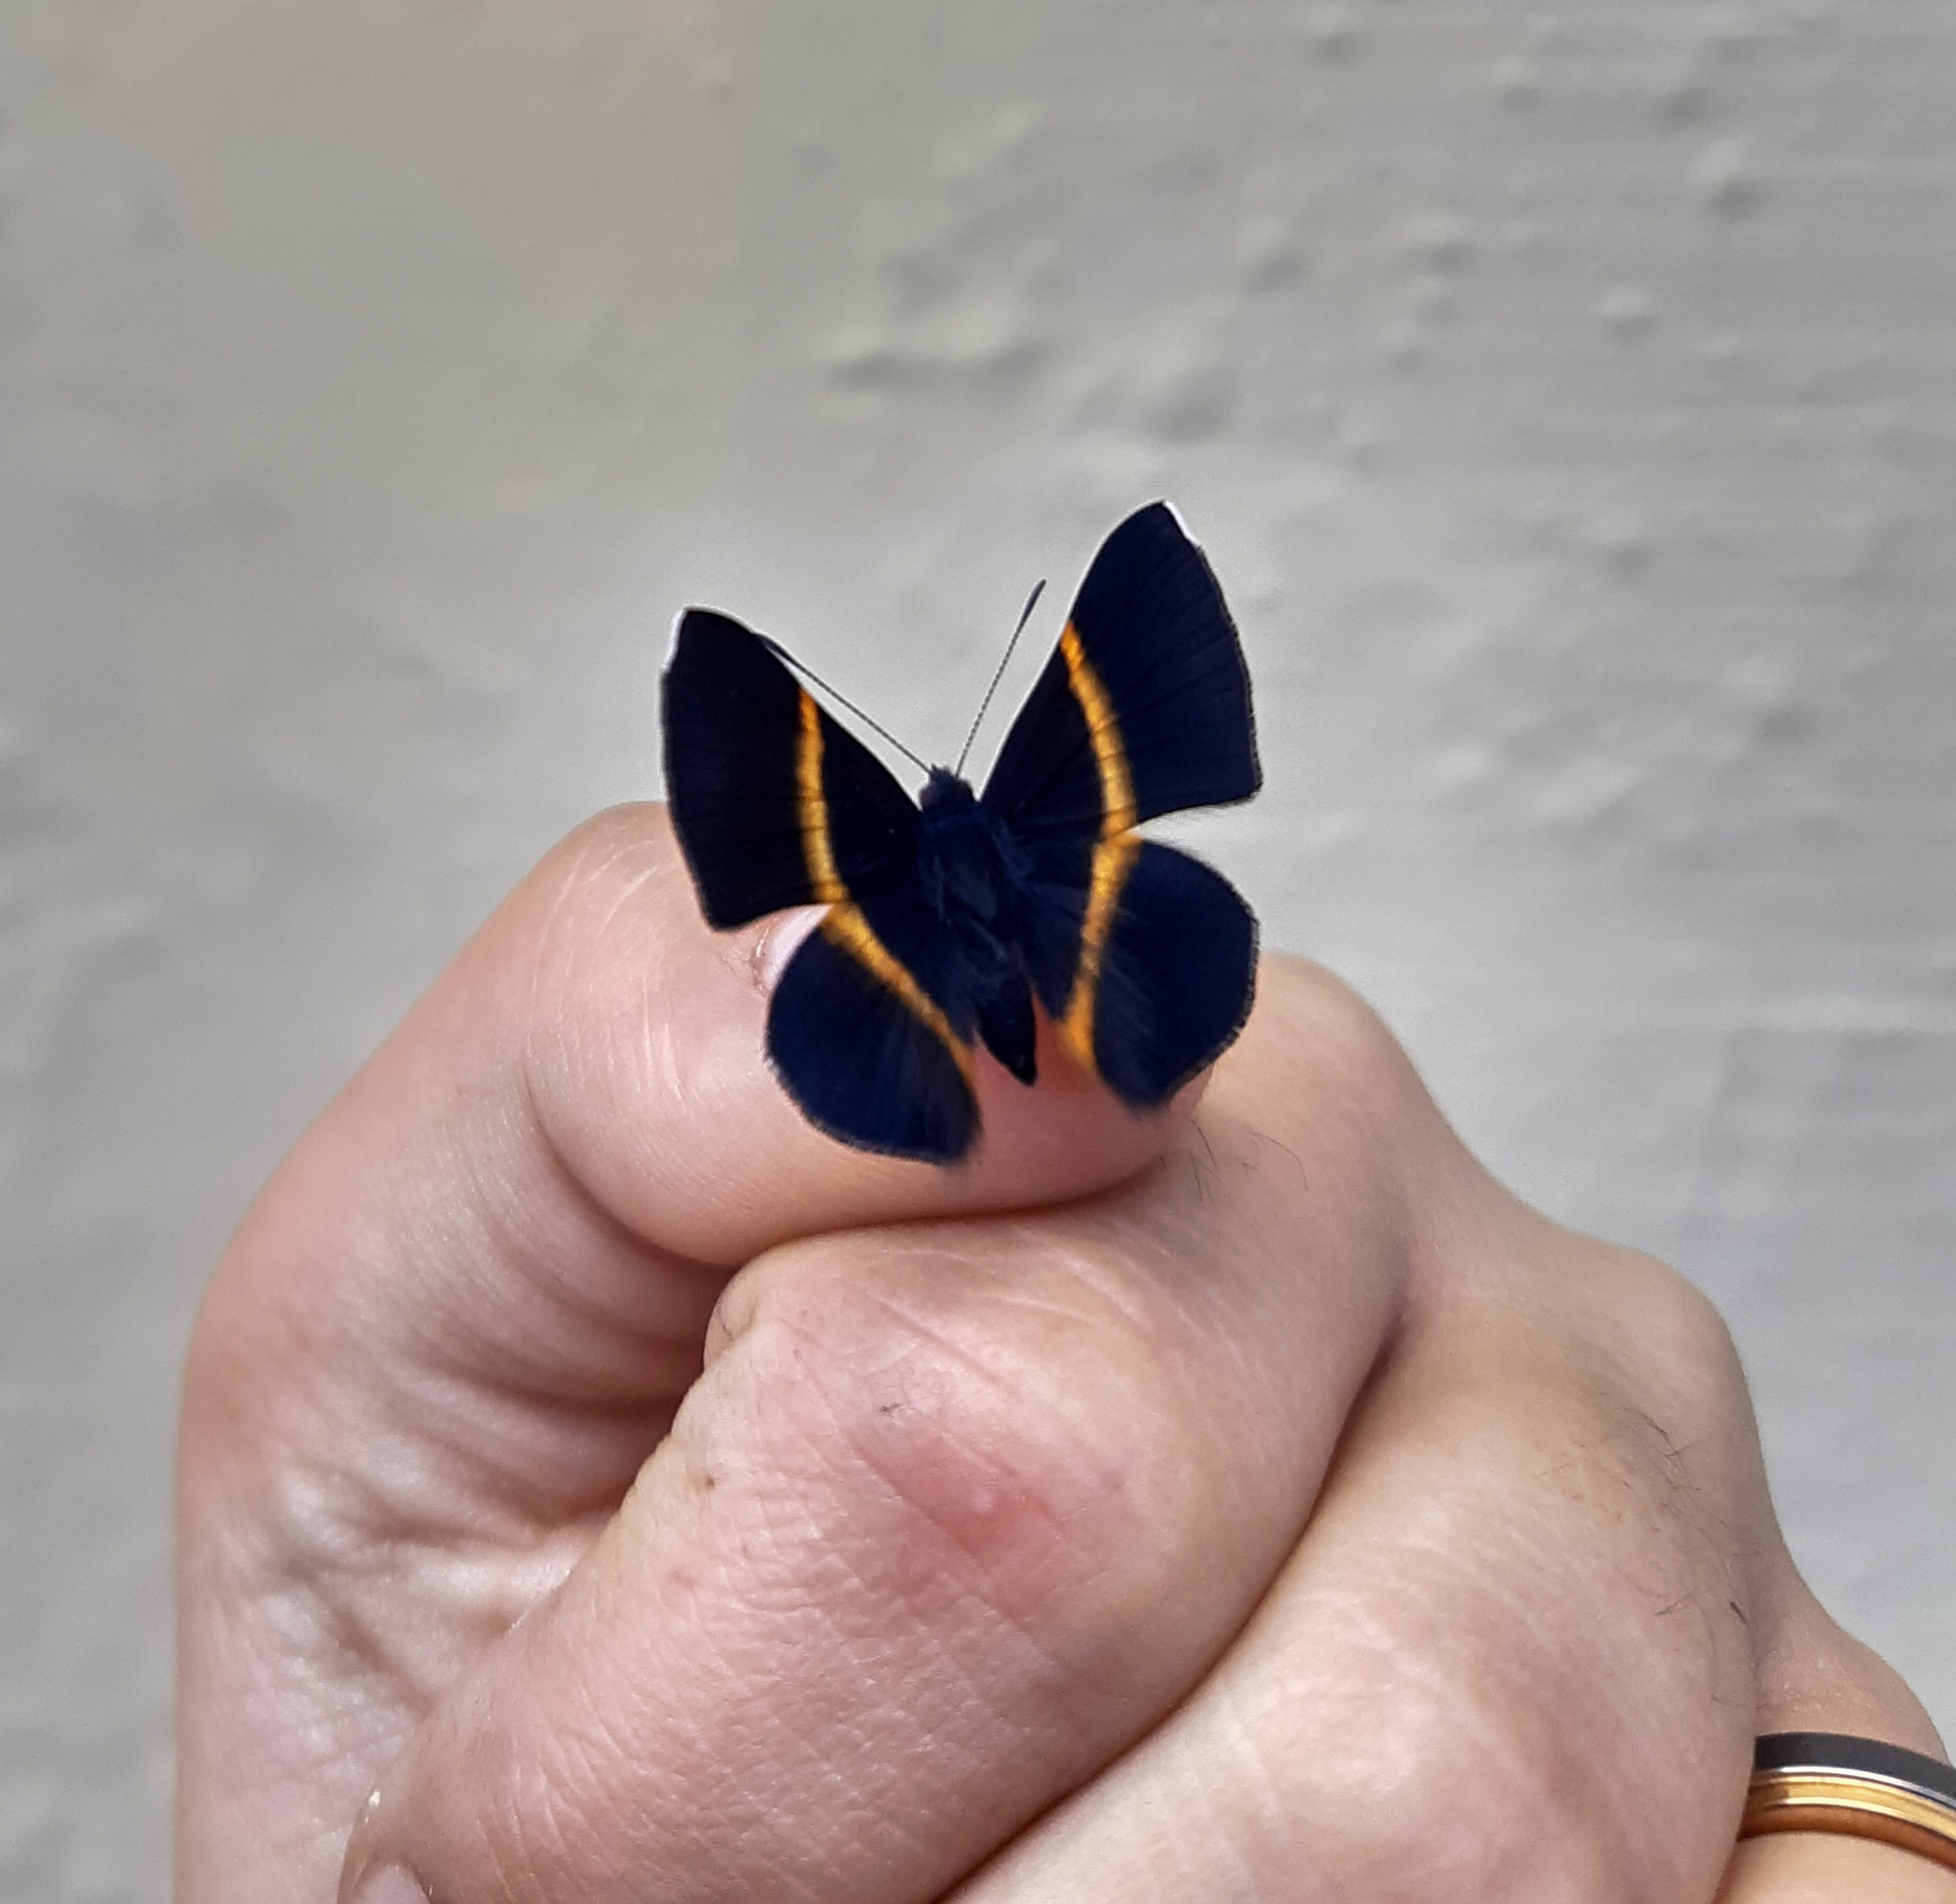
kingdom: Animalia
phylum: Arthropoda
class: Insecta
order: Lepidoptera
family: Riodinidae
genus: Parcella
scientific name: Parcella amarynthina
